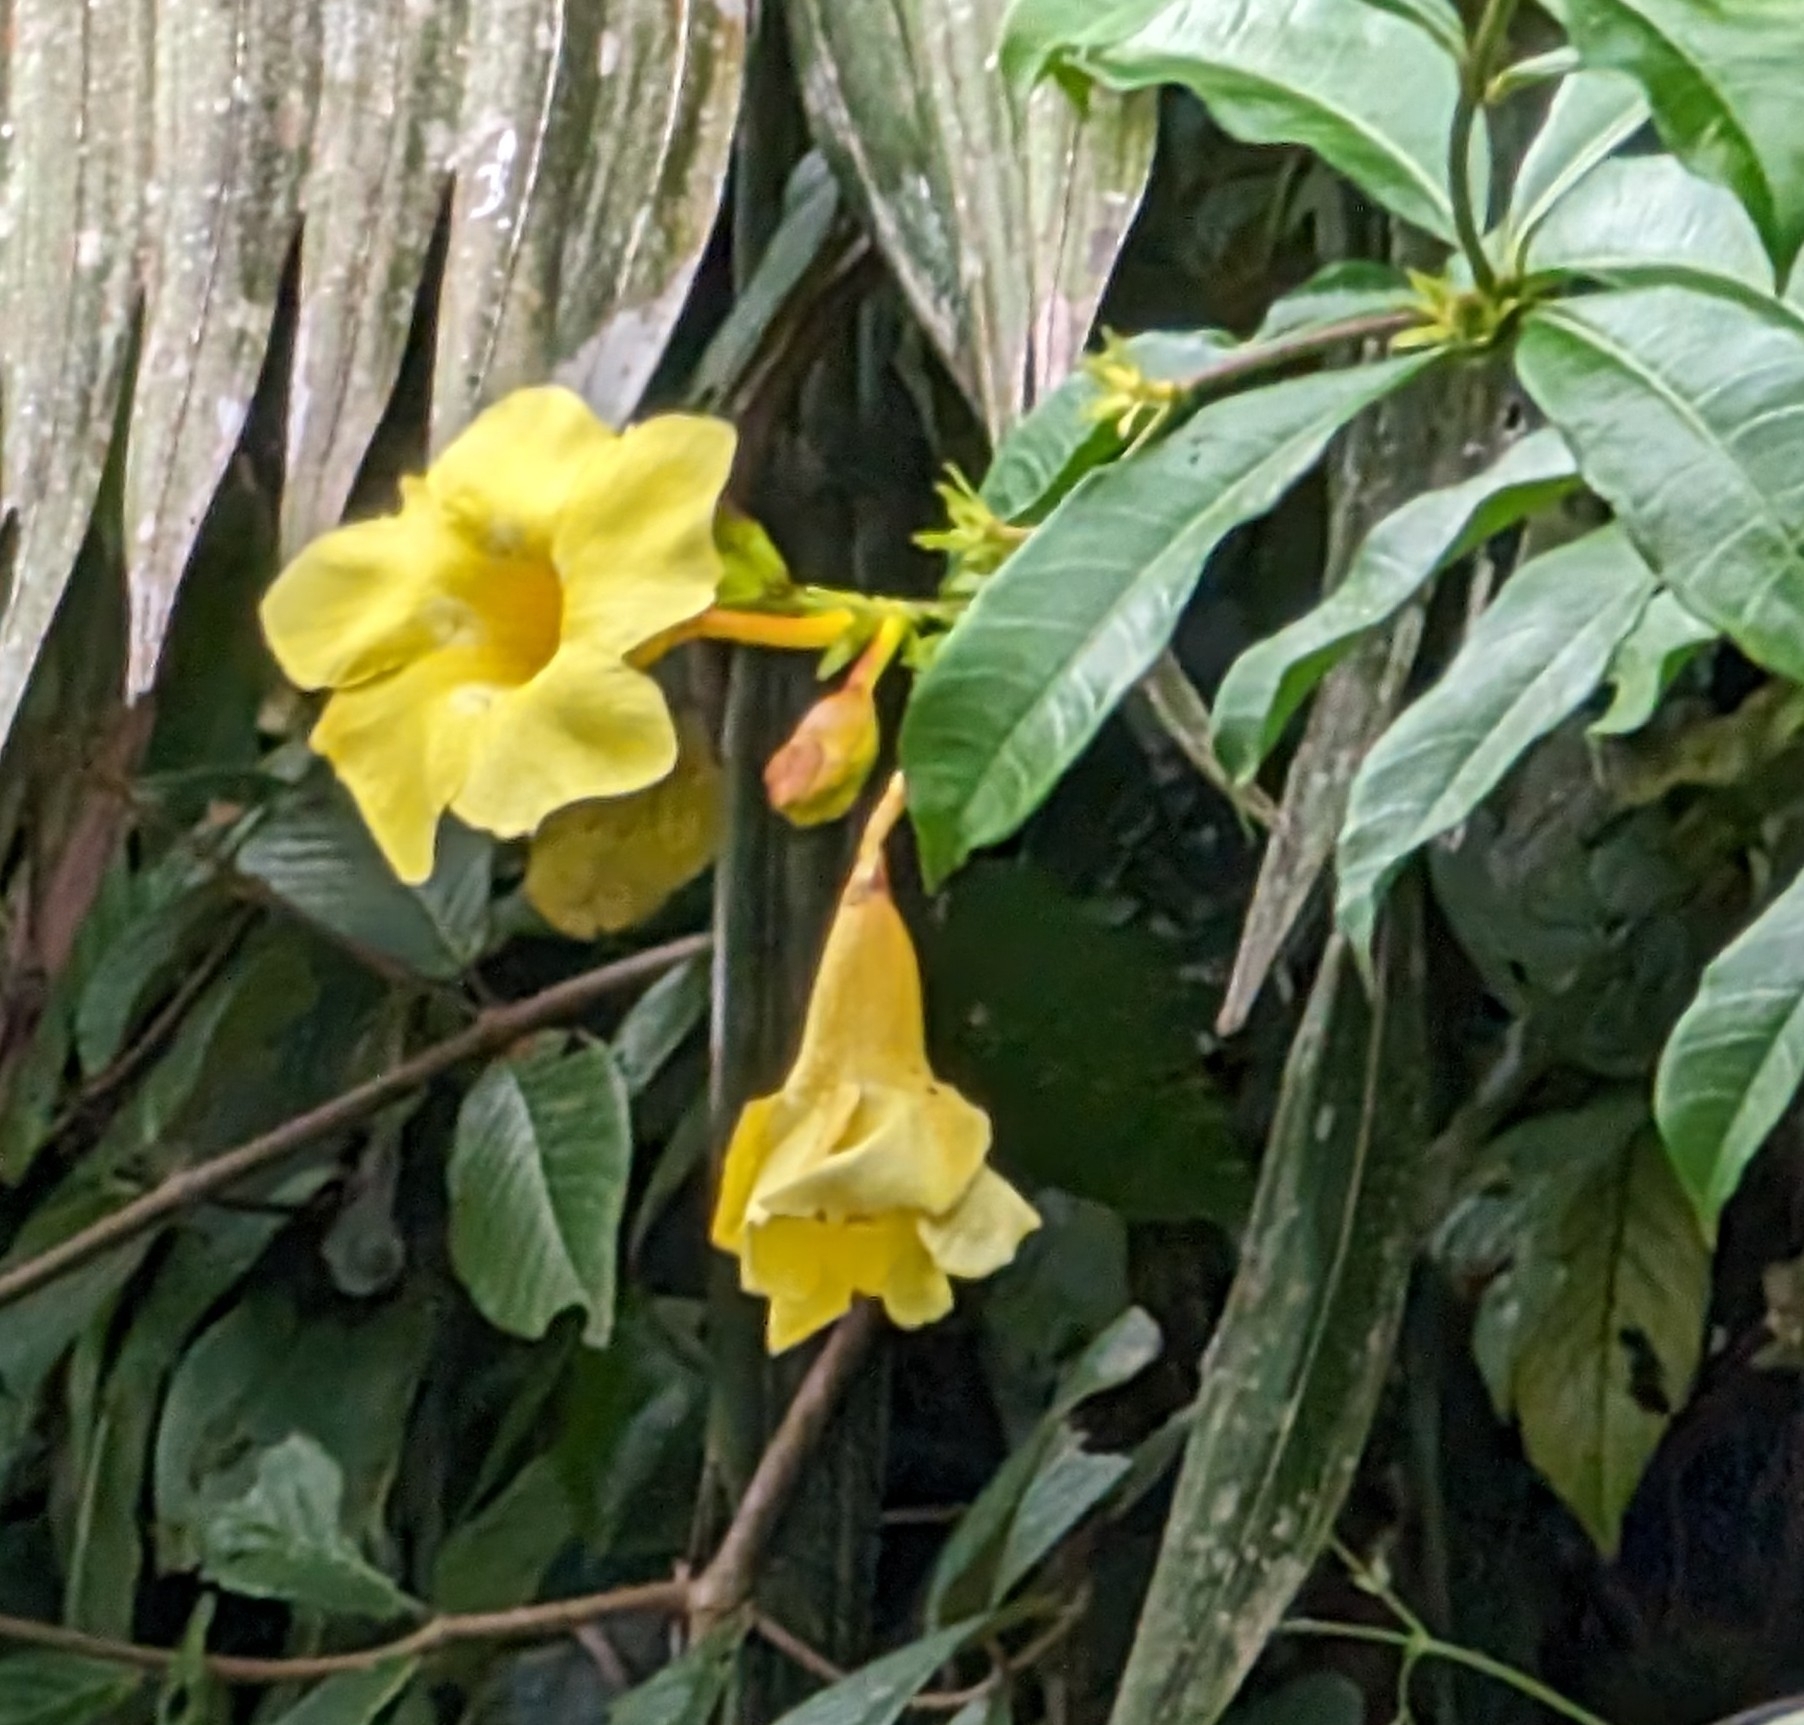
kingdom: Plantae
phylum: Tracheophyta
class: Magnoliopsida
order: Gentianales
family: Apocynaceae
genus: Allamanda
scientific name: Allamanda cathartica
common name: Golden trumpet
